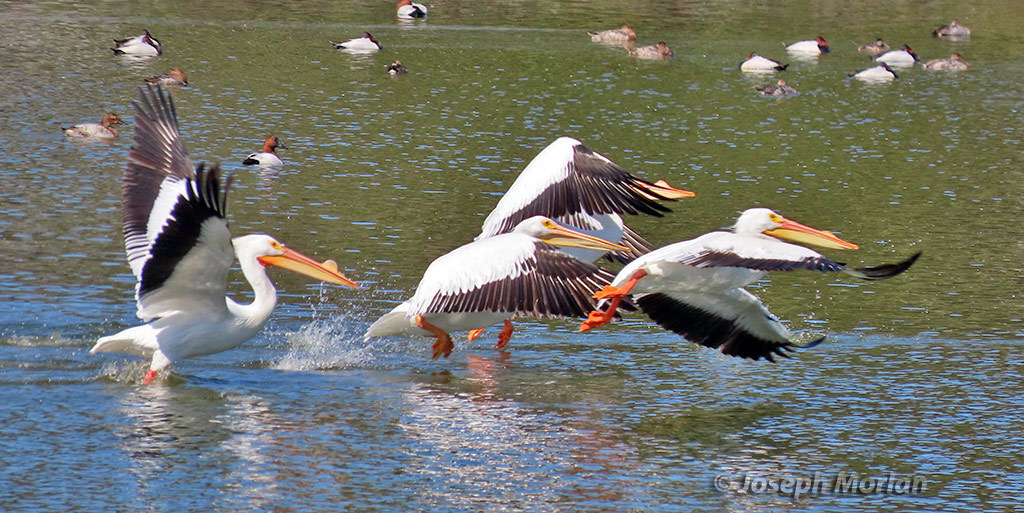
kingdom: Animalia
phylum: Chordata
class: Aves
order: Pelecaniformes
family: Pelecanidae
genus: Pelecanus
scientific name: Pelecanus erythrorhynchos
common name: American white pelican
